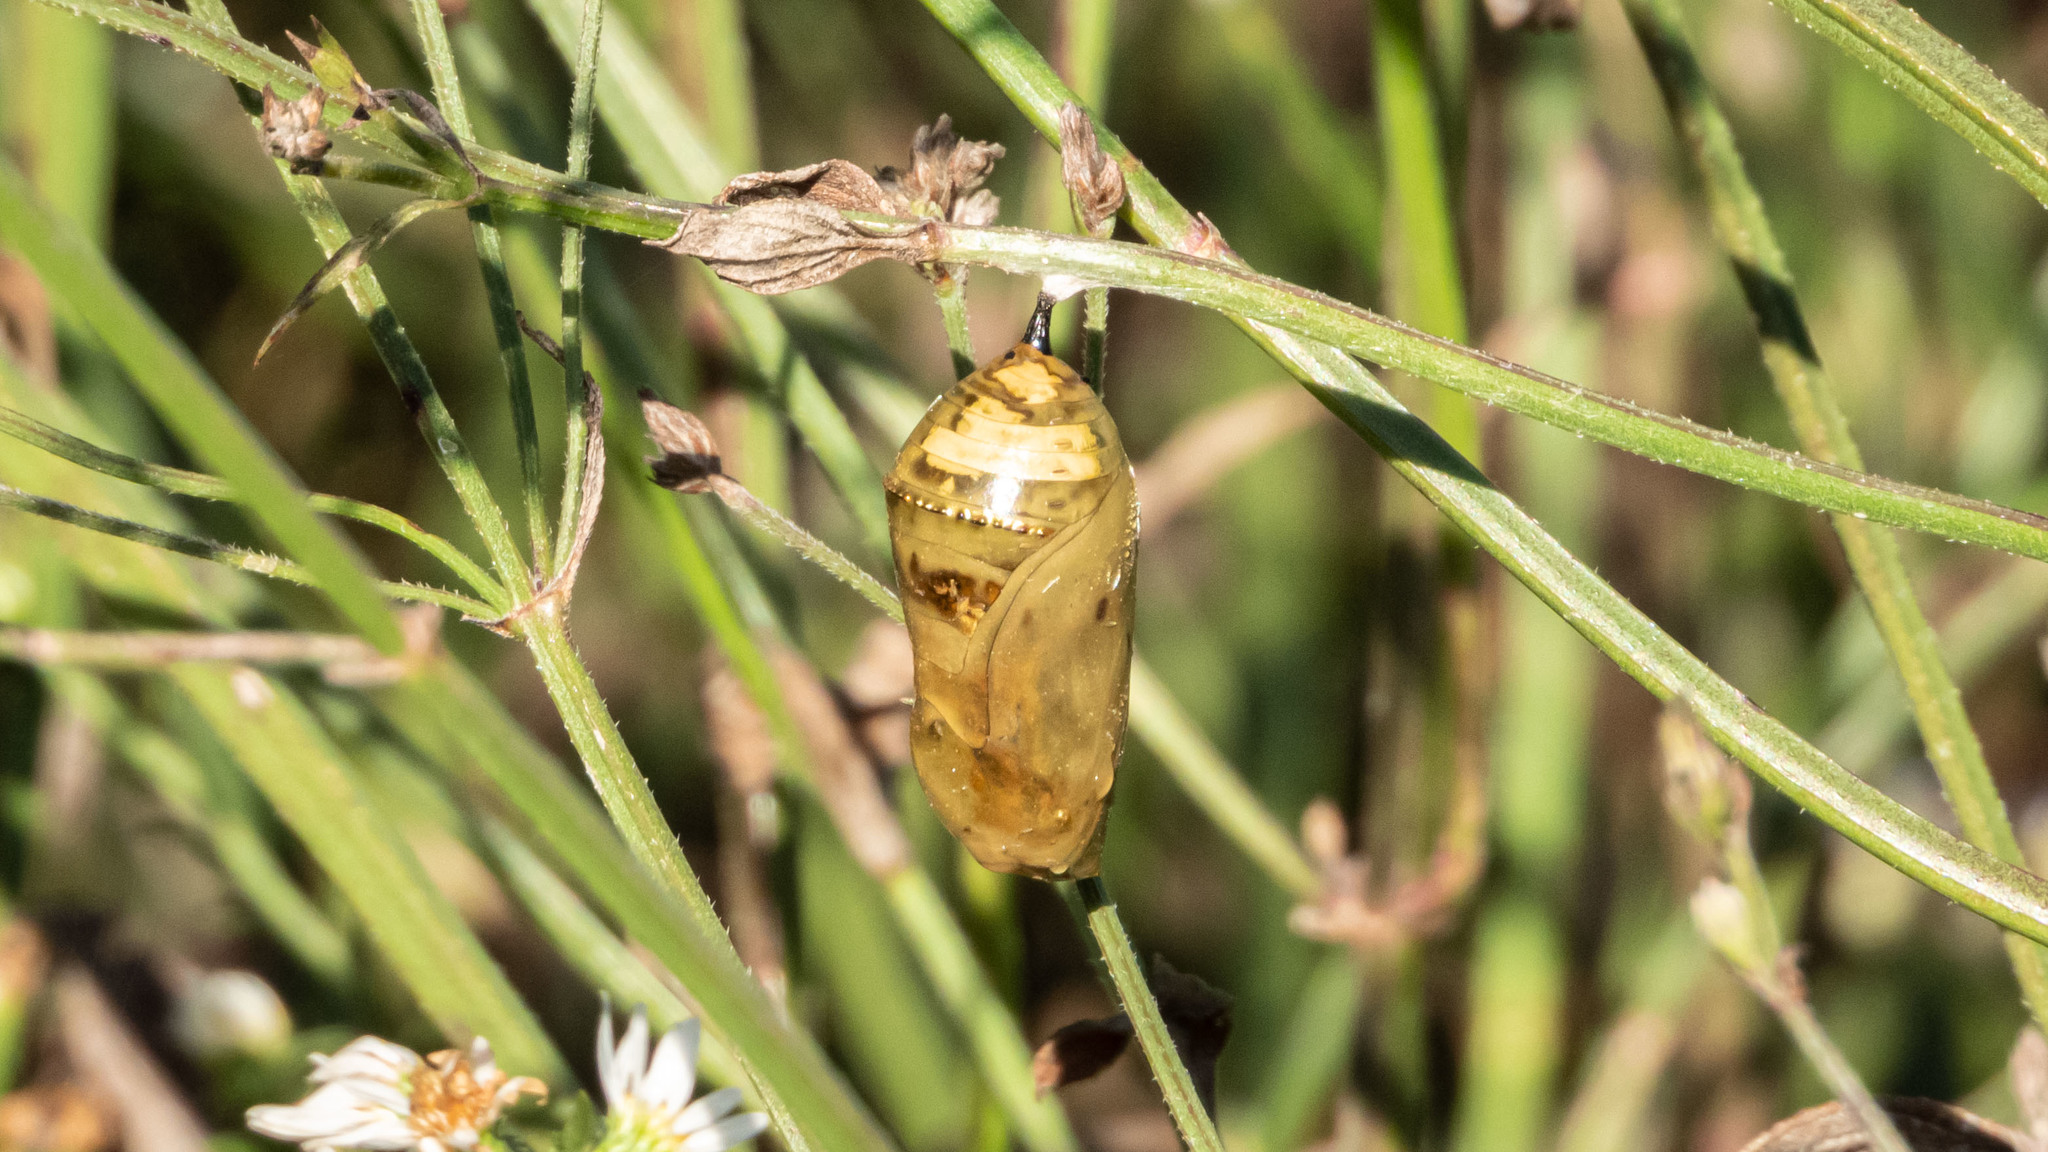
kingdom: Animalia
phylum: Arthropoda
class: Insecta
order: Lepidoptera
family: Nymphalidae
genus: Danaus
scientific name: Danaus plexippus
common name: Monarch
